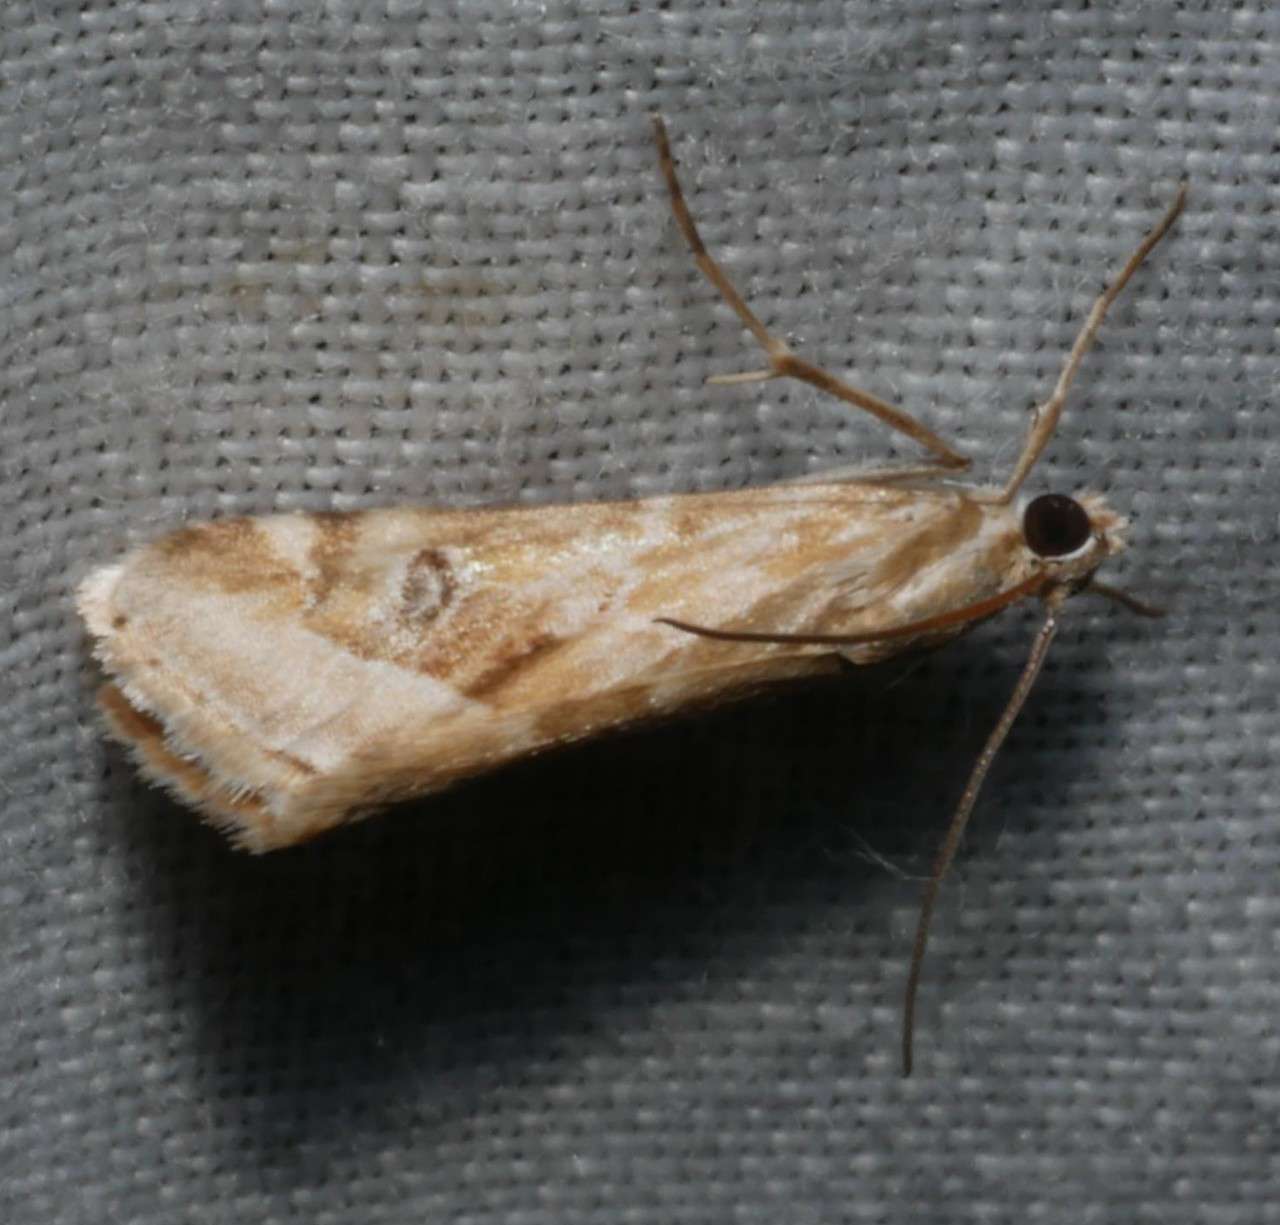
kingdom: Animalia
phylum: Arthropoda
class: Insecta
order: Lepidoptera
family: Crambidae
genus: Hellula
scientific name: Hellula hydralis
